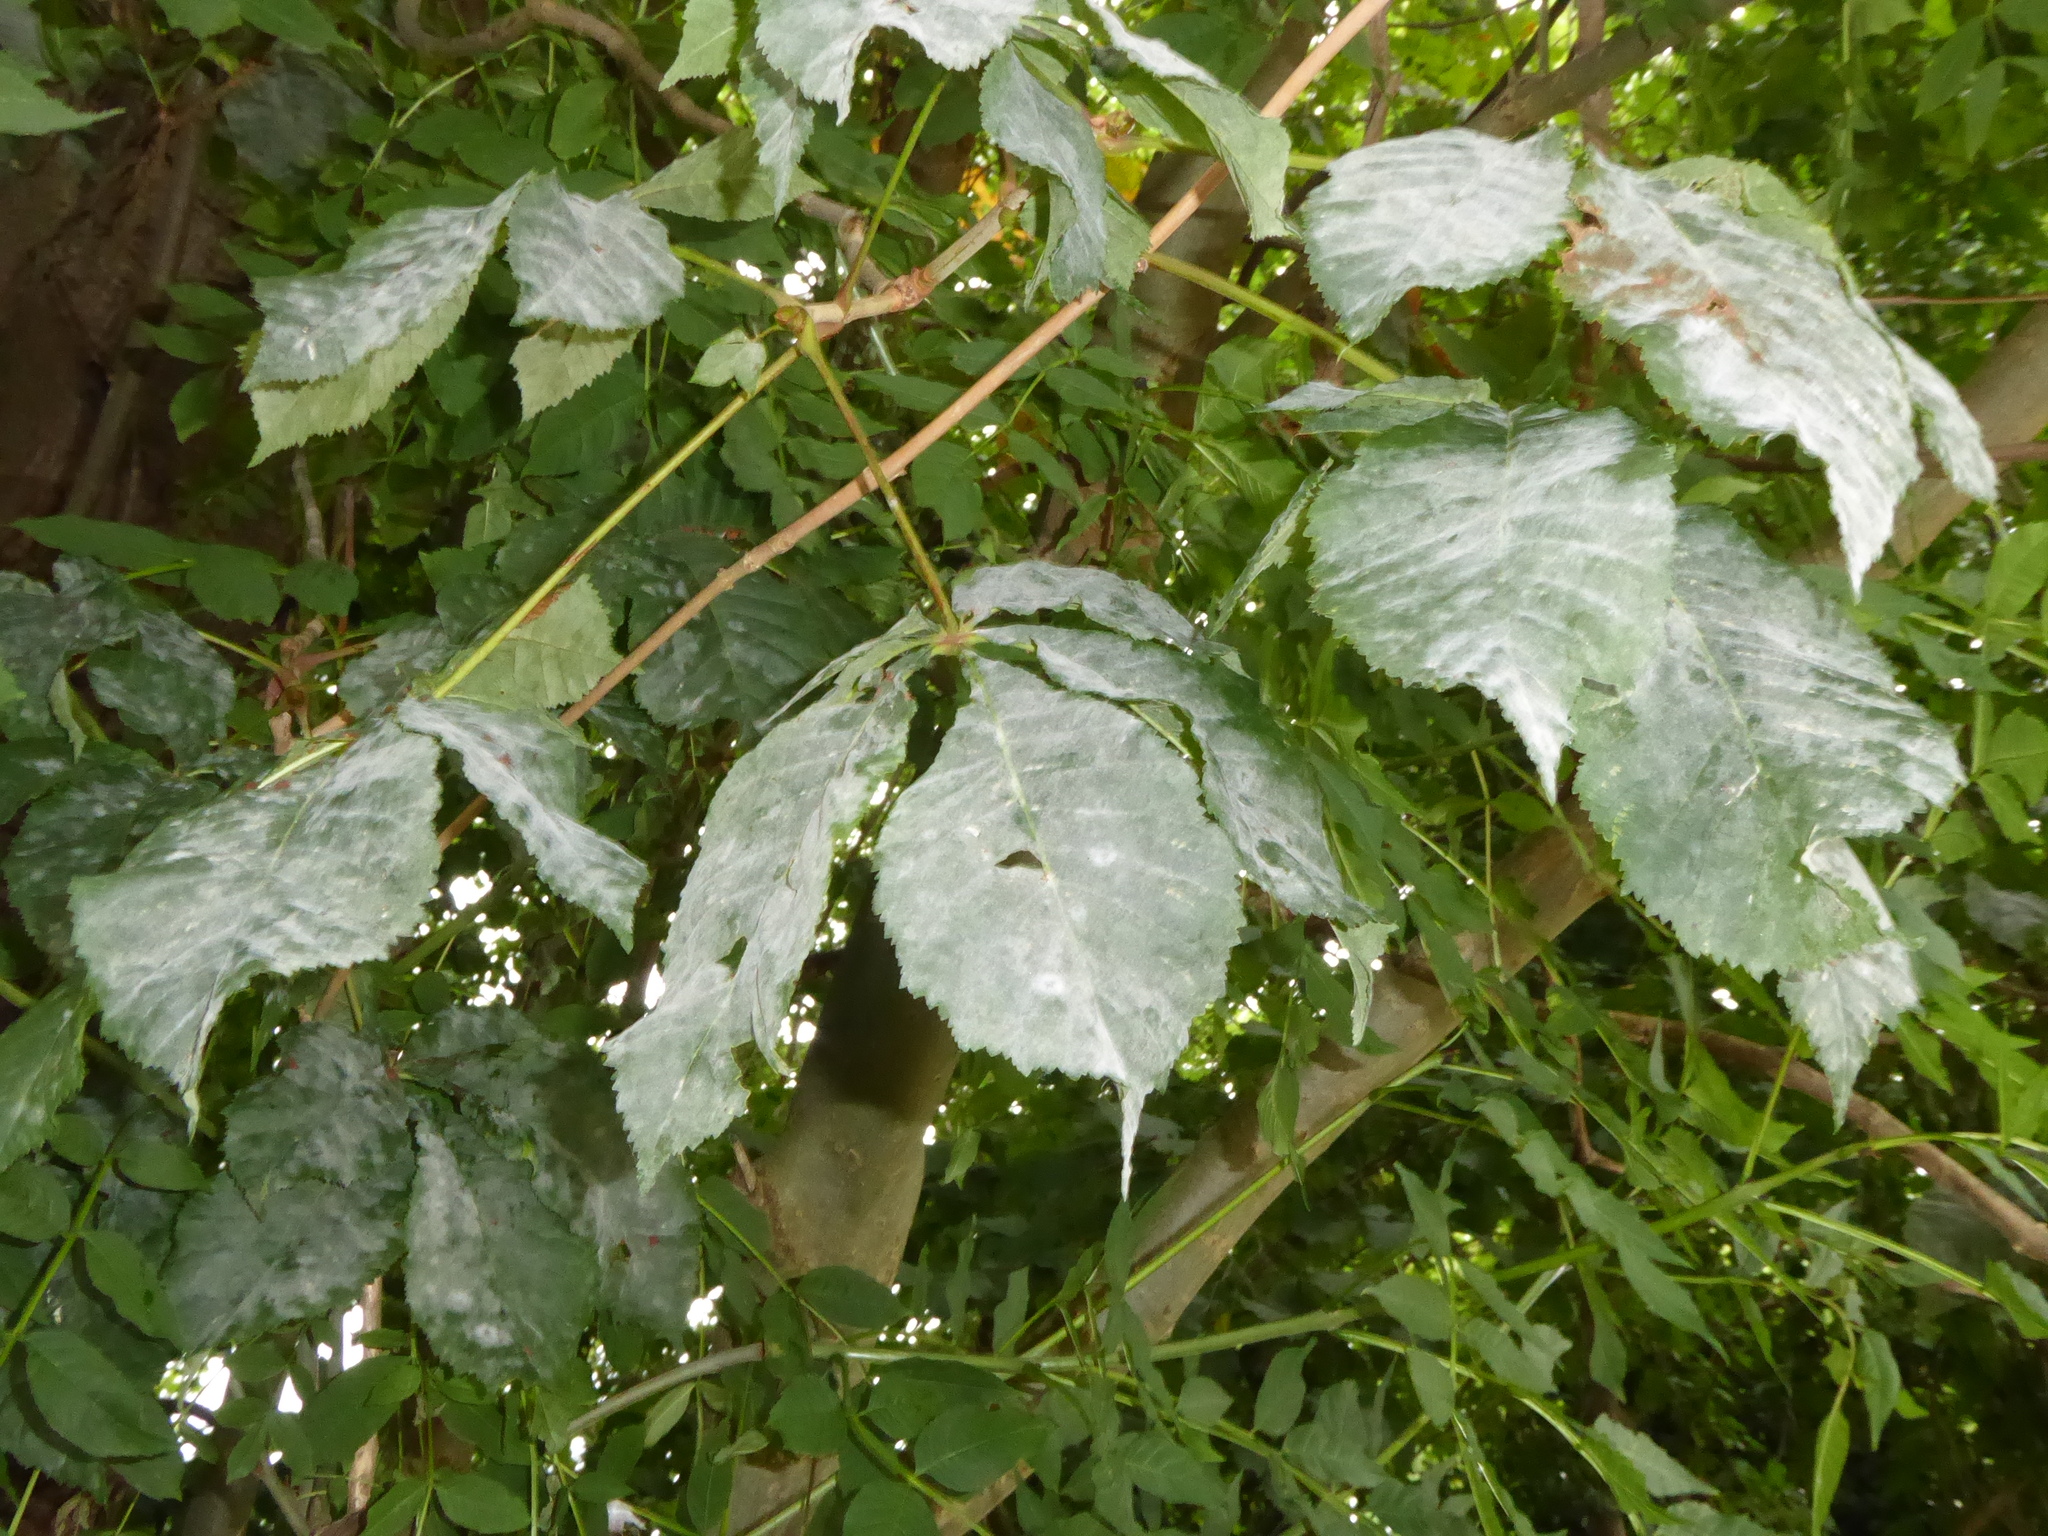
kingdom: Fungi
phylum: Ascomycota
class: Leotiomycetes
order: Helotiales
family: Erysiphaceae
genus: Erysiphe
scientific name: Erysiphe flexuosa
